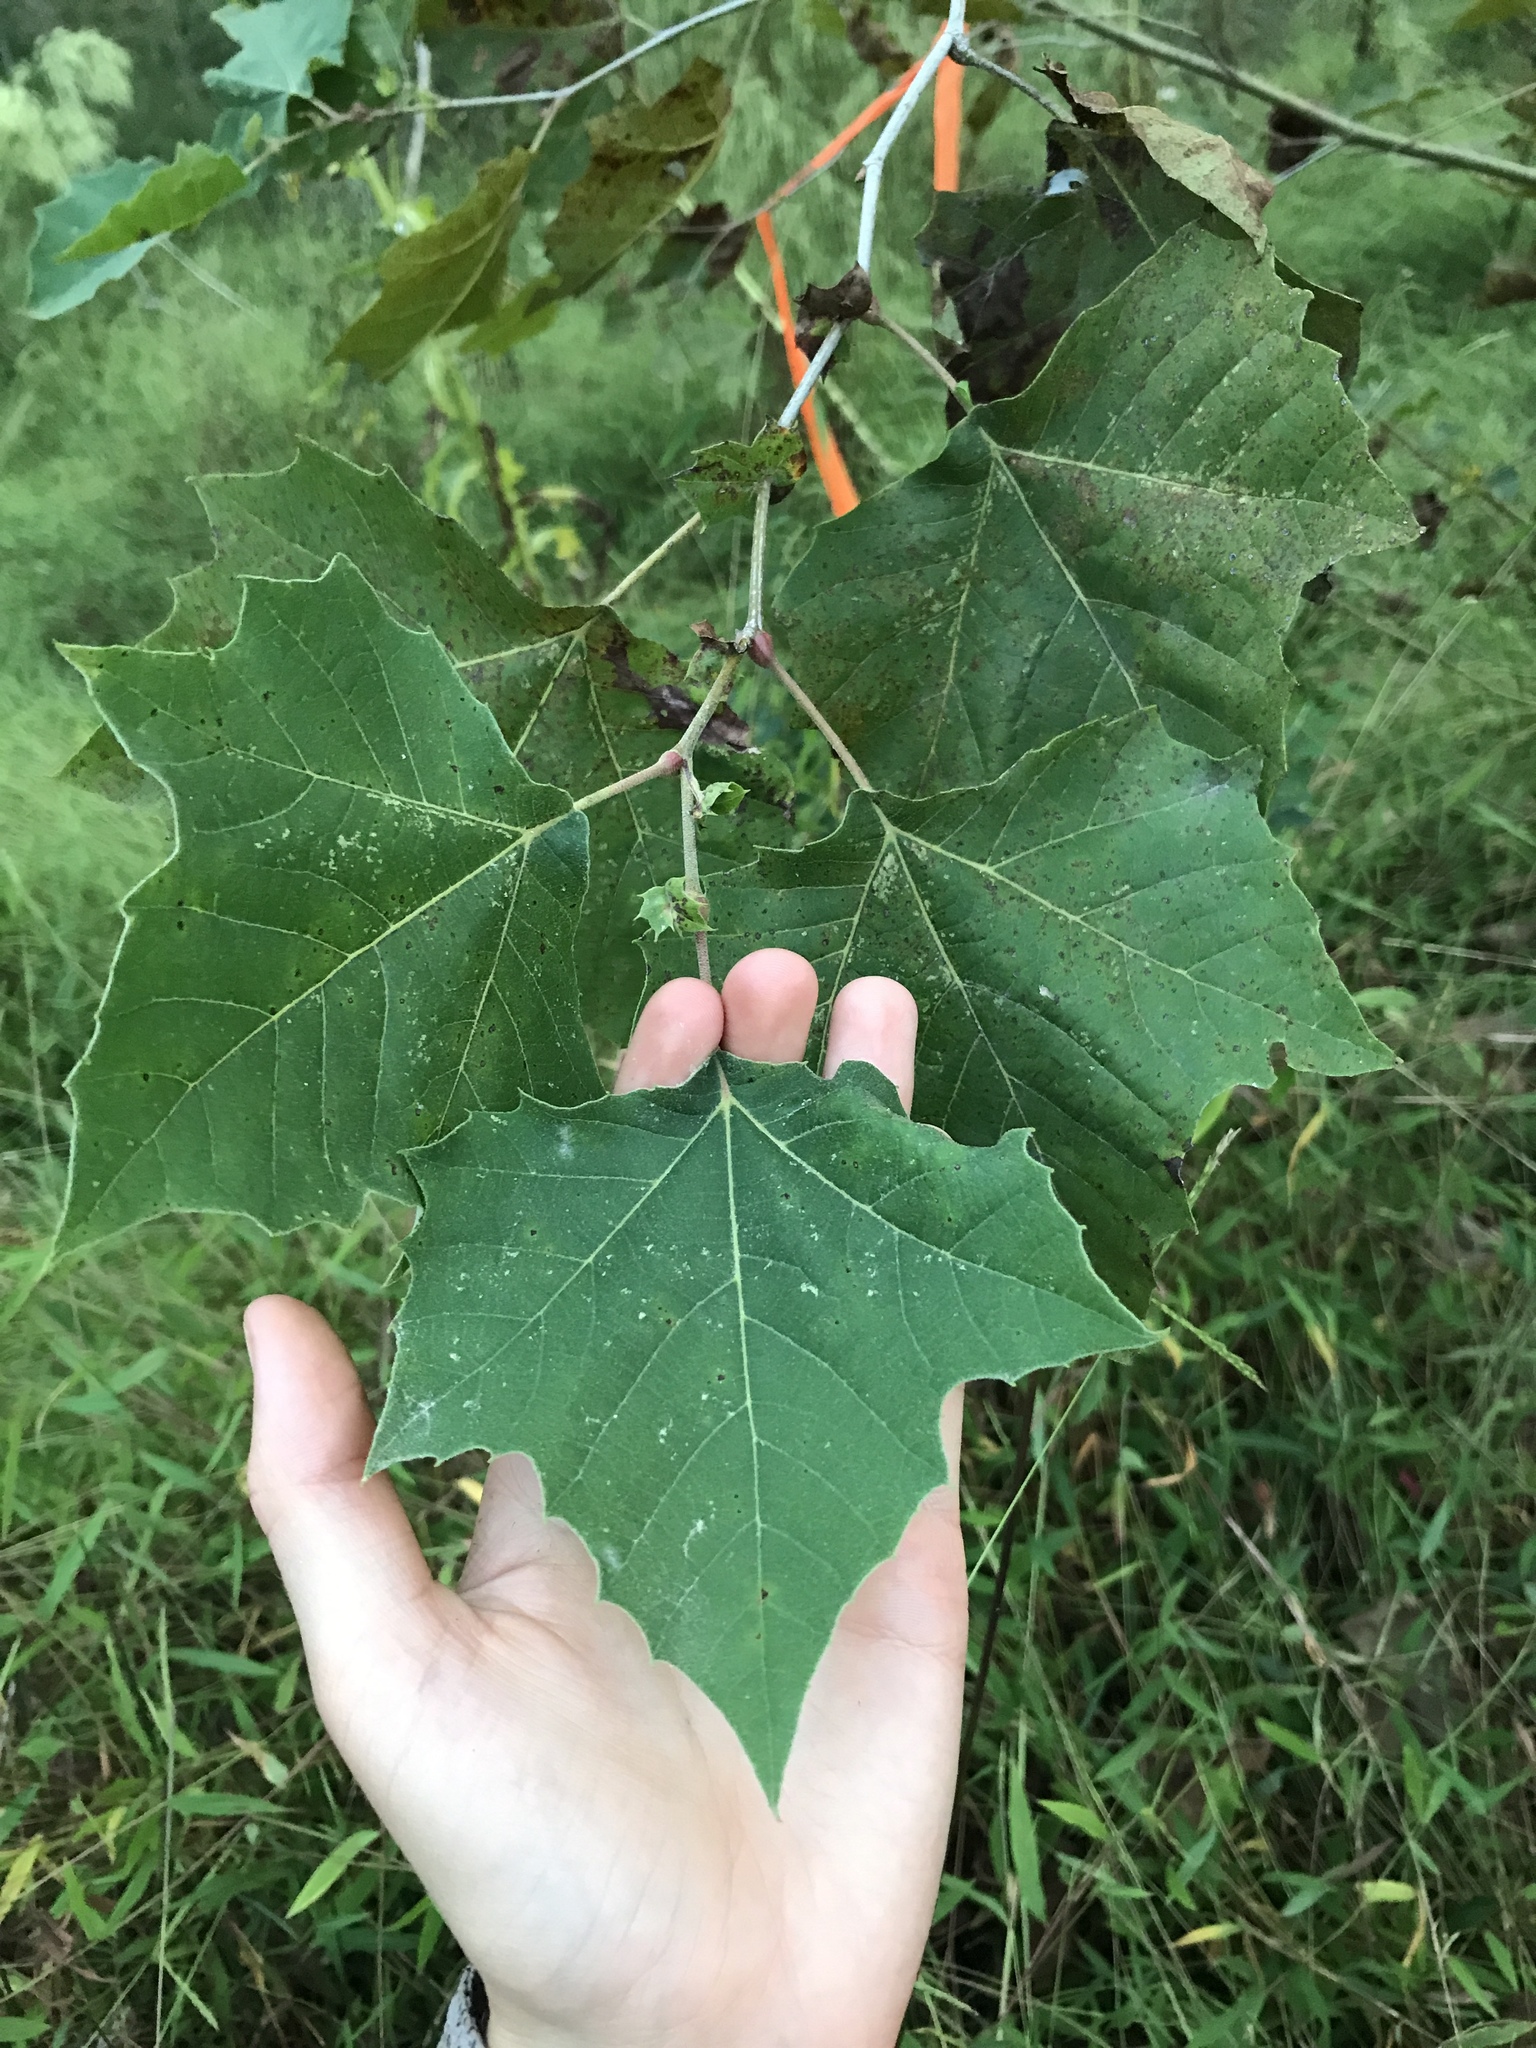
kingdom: Plantae
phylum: Tracheophyta
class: Magnoliopsida
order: Proteales
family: Platanaceae
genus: Platanus
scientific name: Platanus occidentalis
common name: American sycamore
